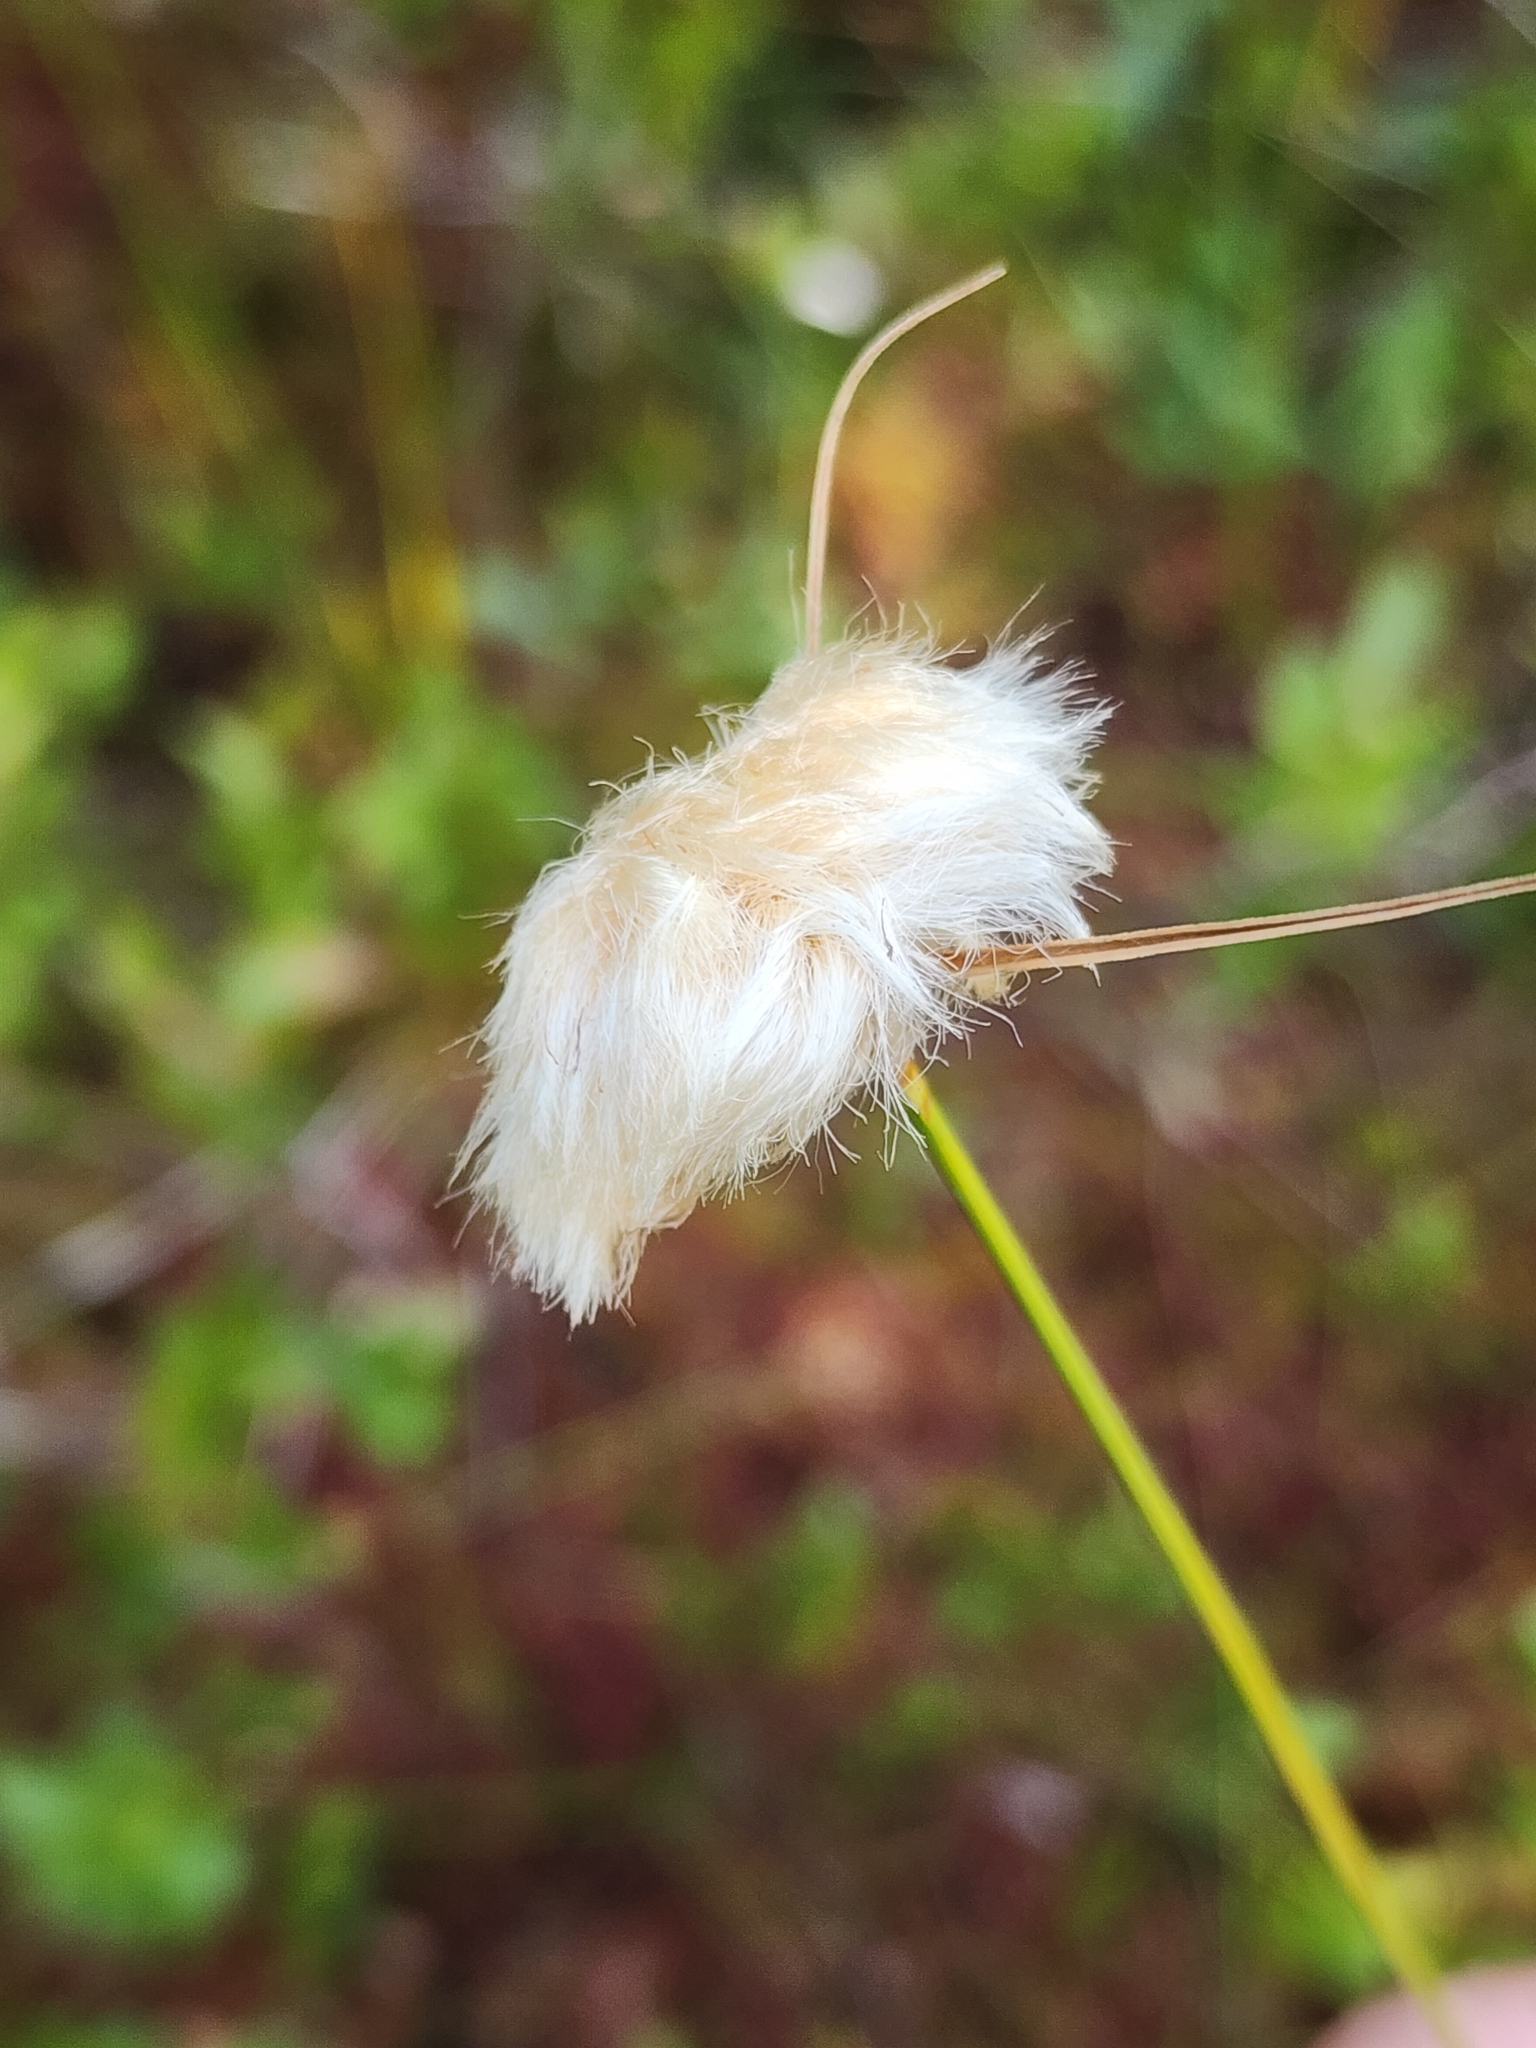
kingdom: Plantae
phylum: Tracheophyta
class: Liliopsida
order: Poales
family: Cyperaceae
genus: Eriophorum
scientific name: Eriophorum virginicum
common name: Tawny cottongrass
